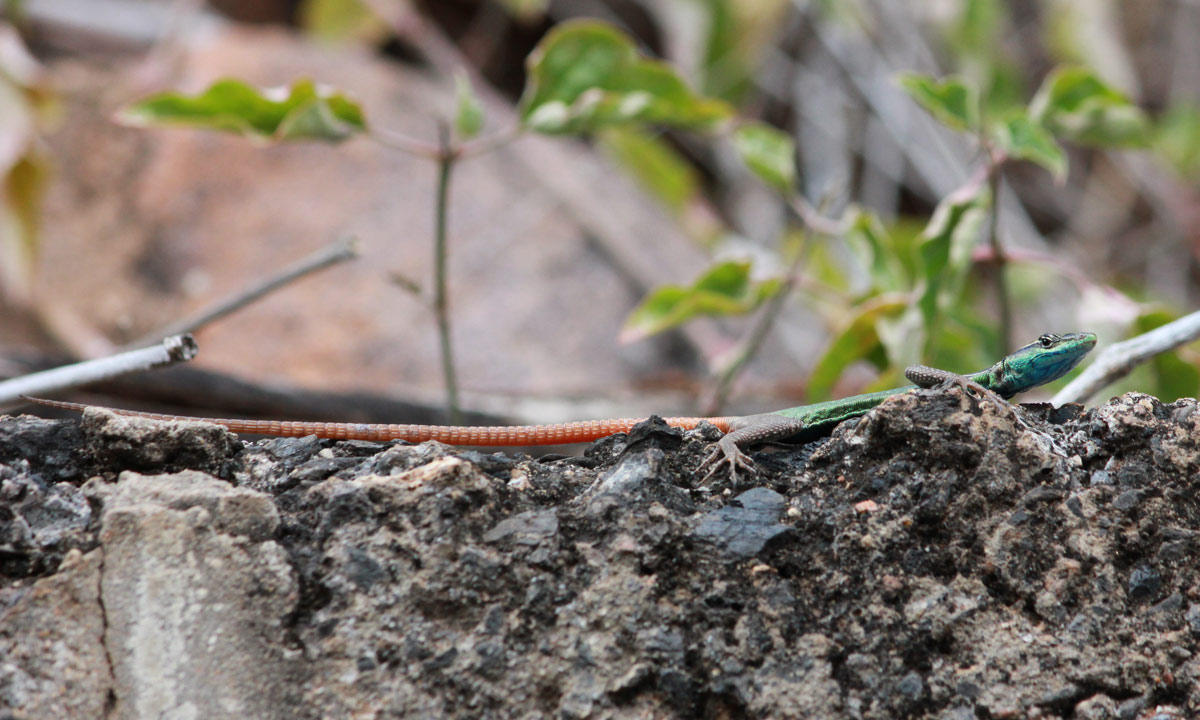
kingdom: Animalia
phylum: Chordata
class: Squamata
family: Cordylidae
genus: Platysaurus
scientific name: Platysaurus relictus
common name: Soutpansberg flat lizard
